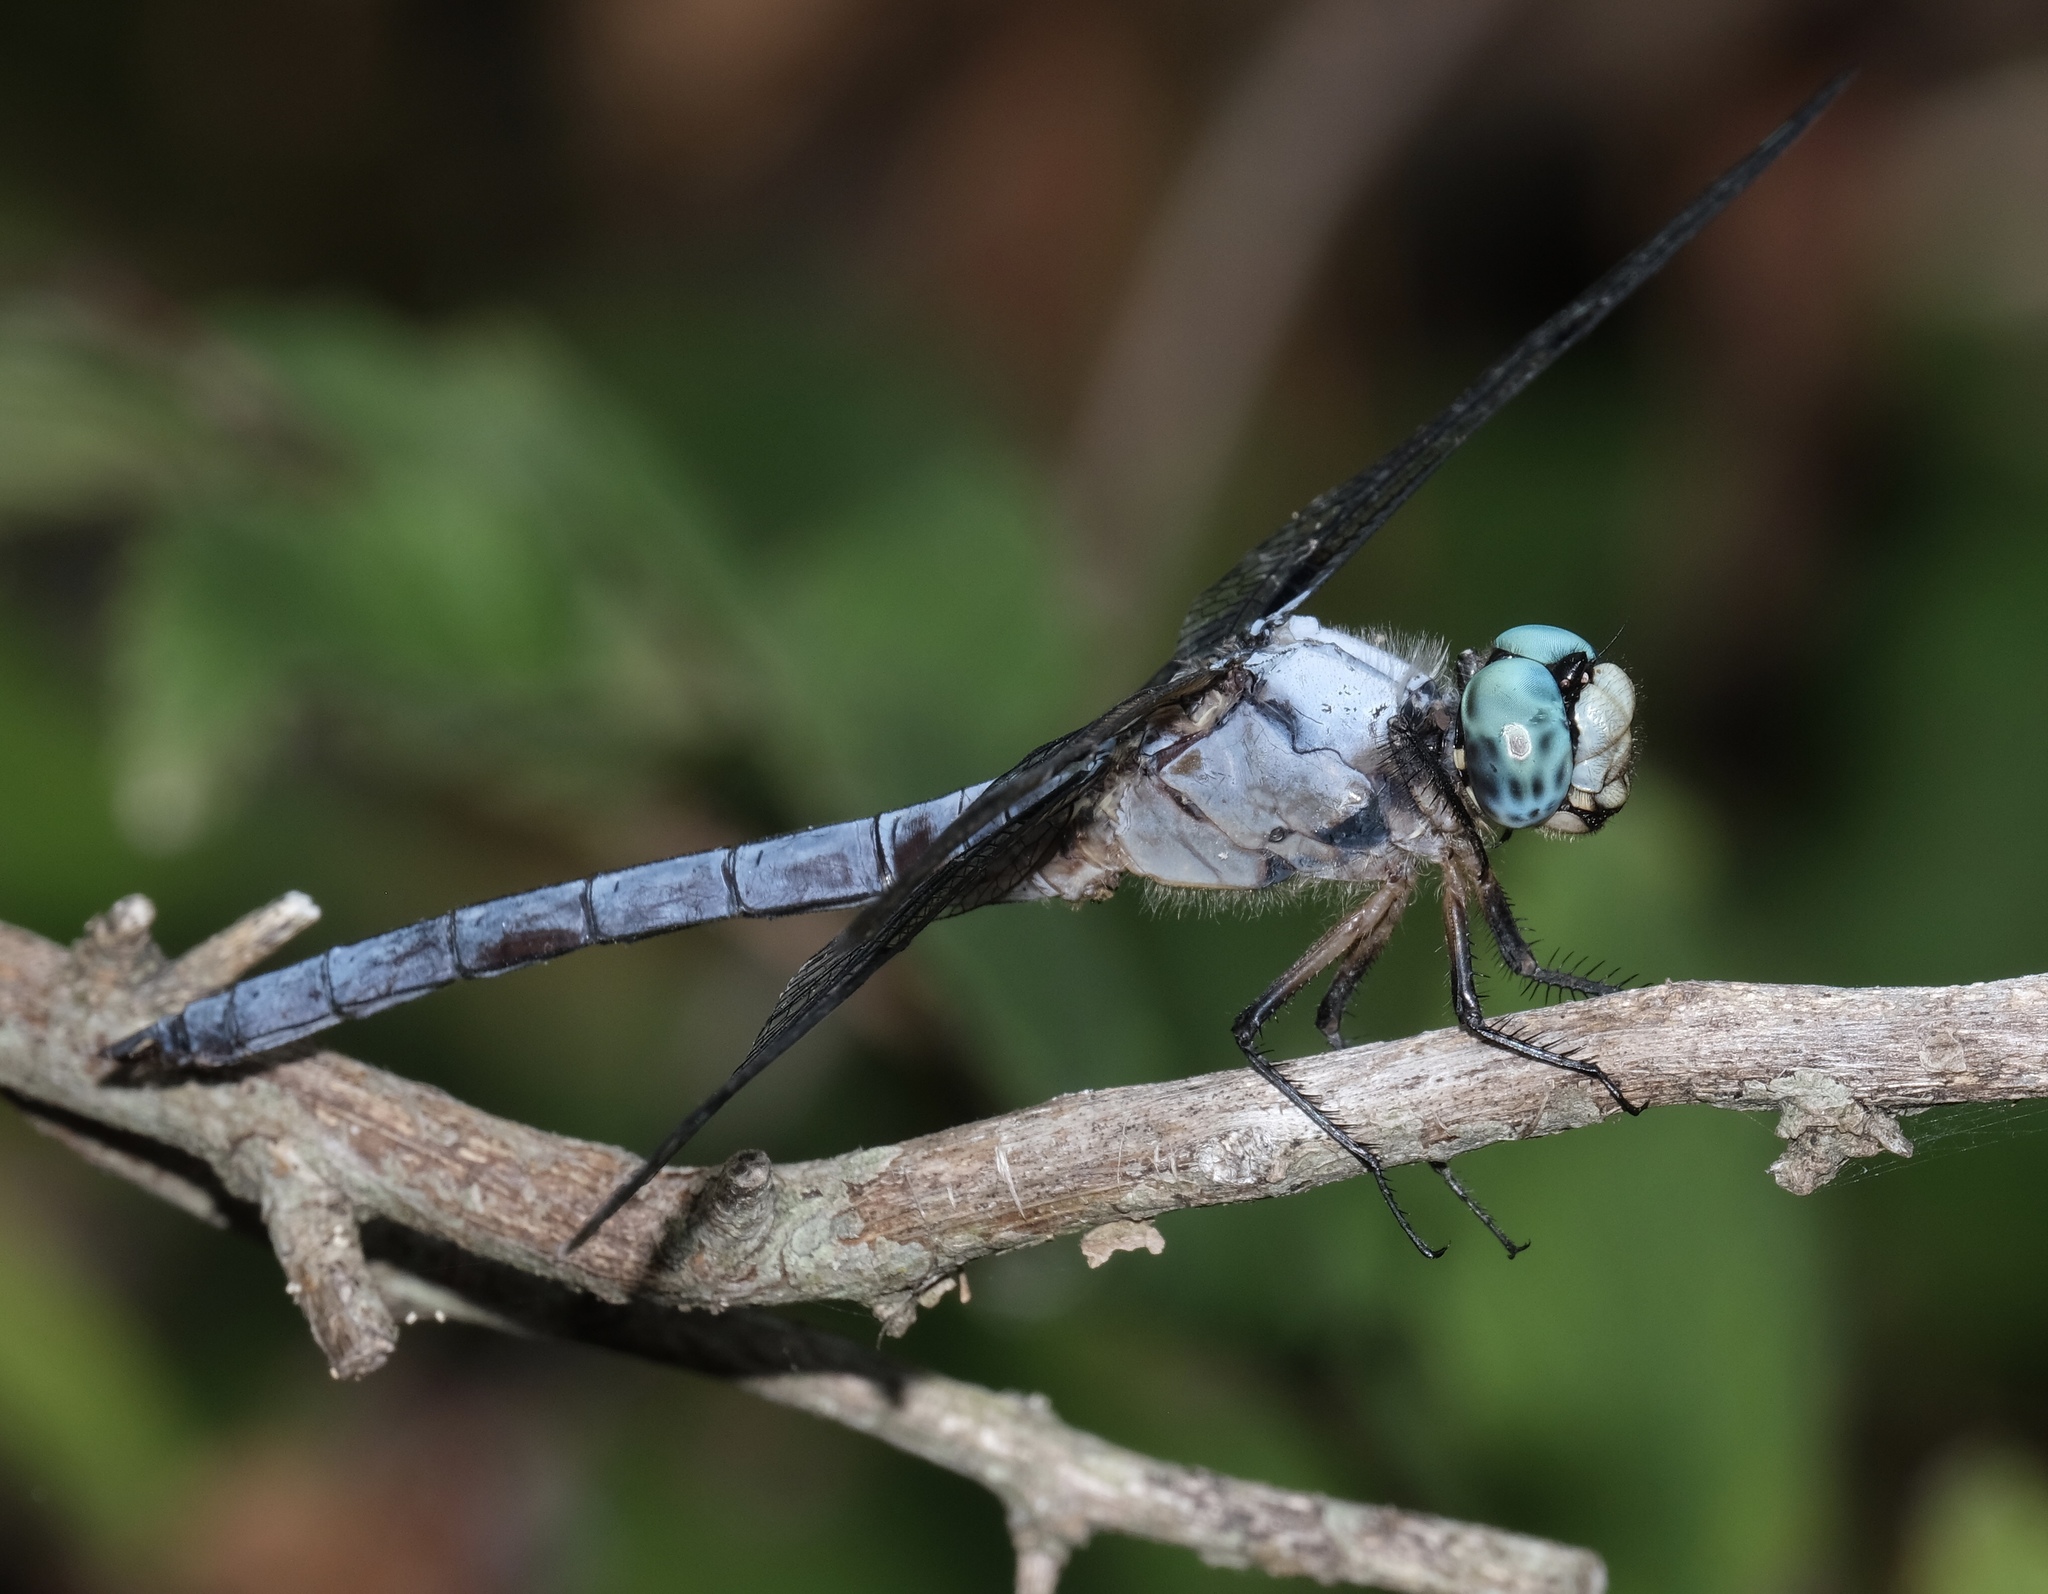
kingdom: Animalia
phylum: Arthropoda
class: Insecta
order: Odonata
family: Libellulidae
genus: Libellula
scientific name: Libellula vibrans
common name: Great blue skimmer
